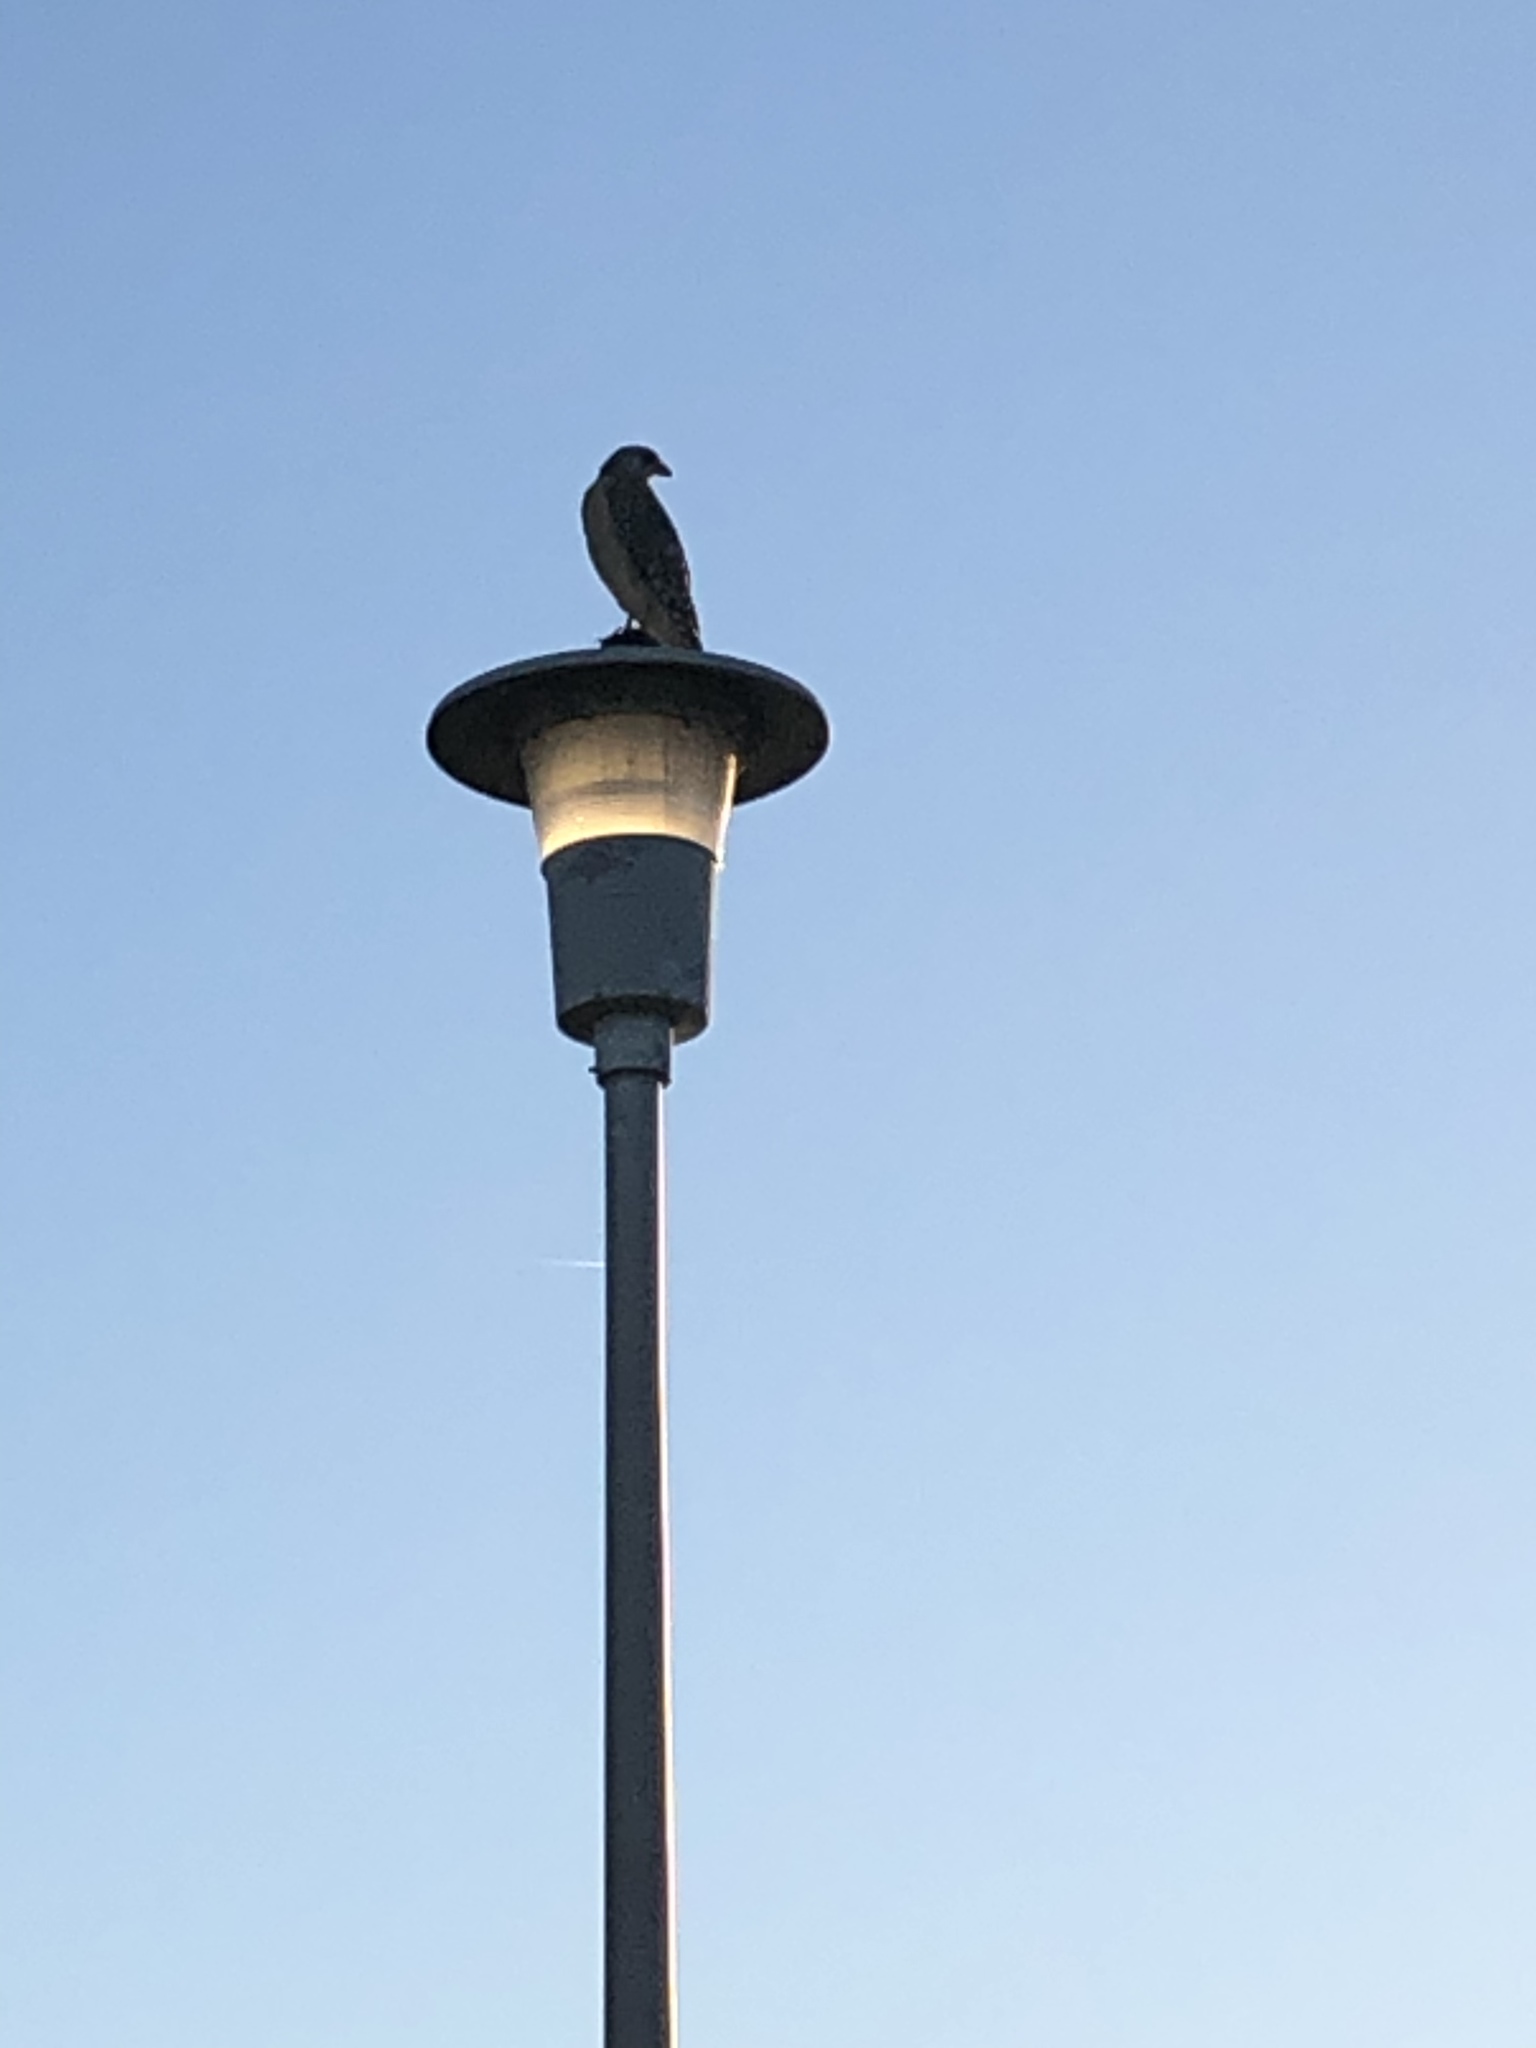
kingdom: Animalia
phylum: Chordata
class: Aves
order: Accipitriformes
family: Accipitridae
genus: Buteo
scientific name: Buteo lineatus
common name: Red-shouldered hawk
